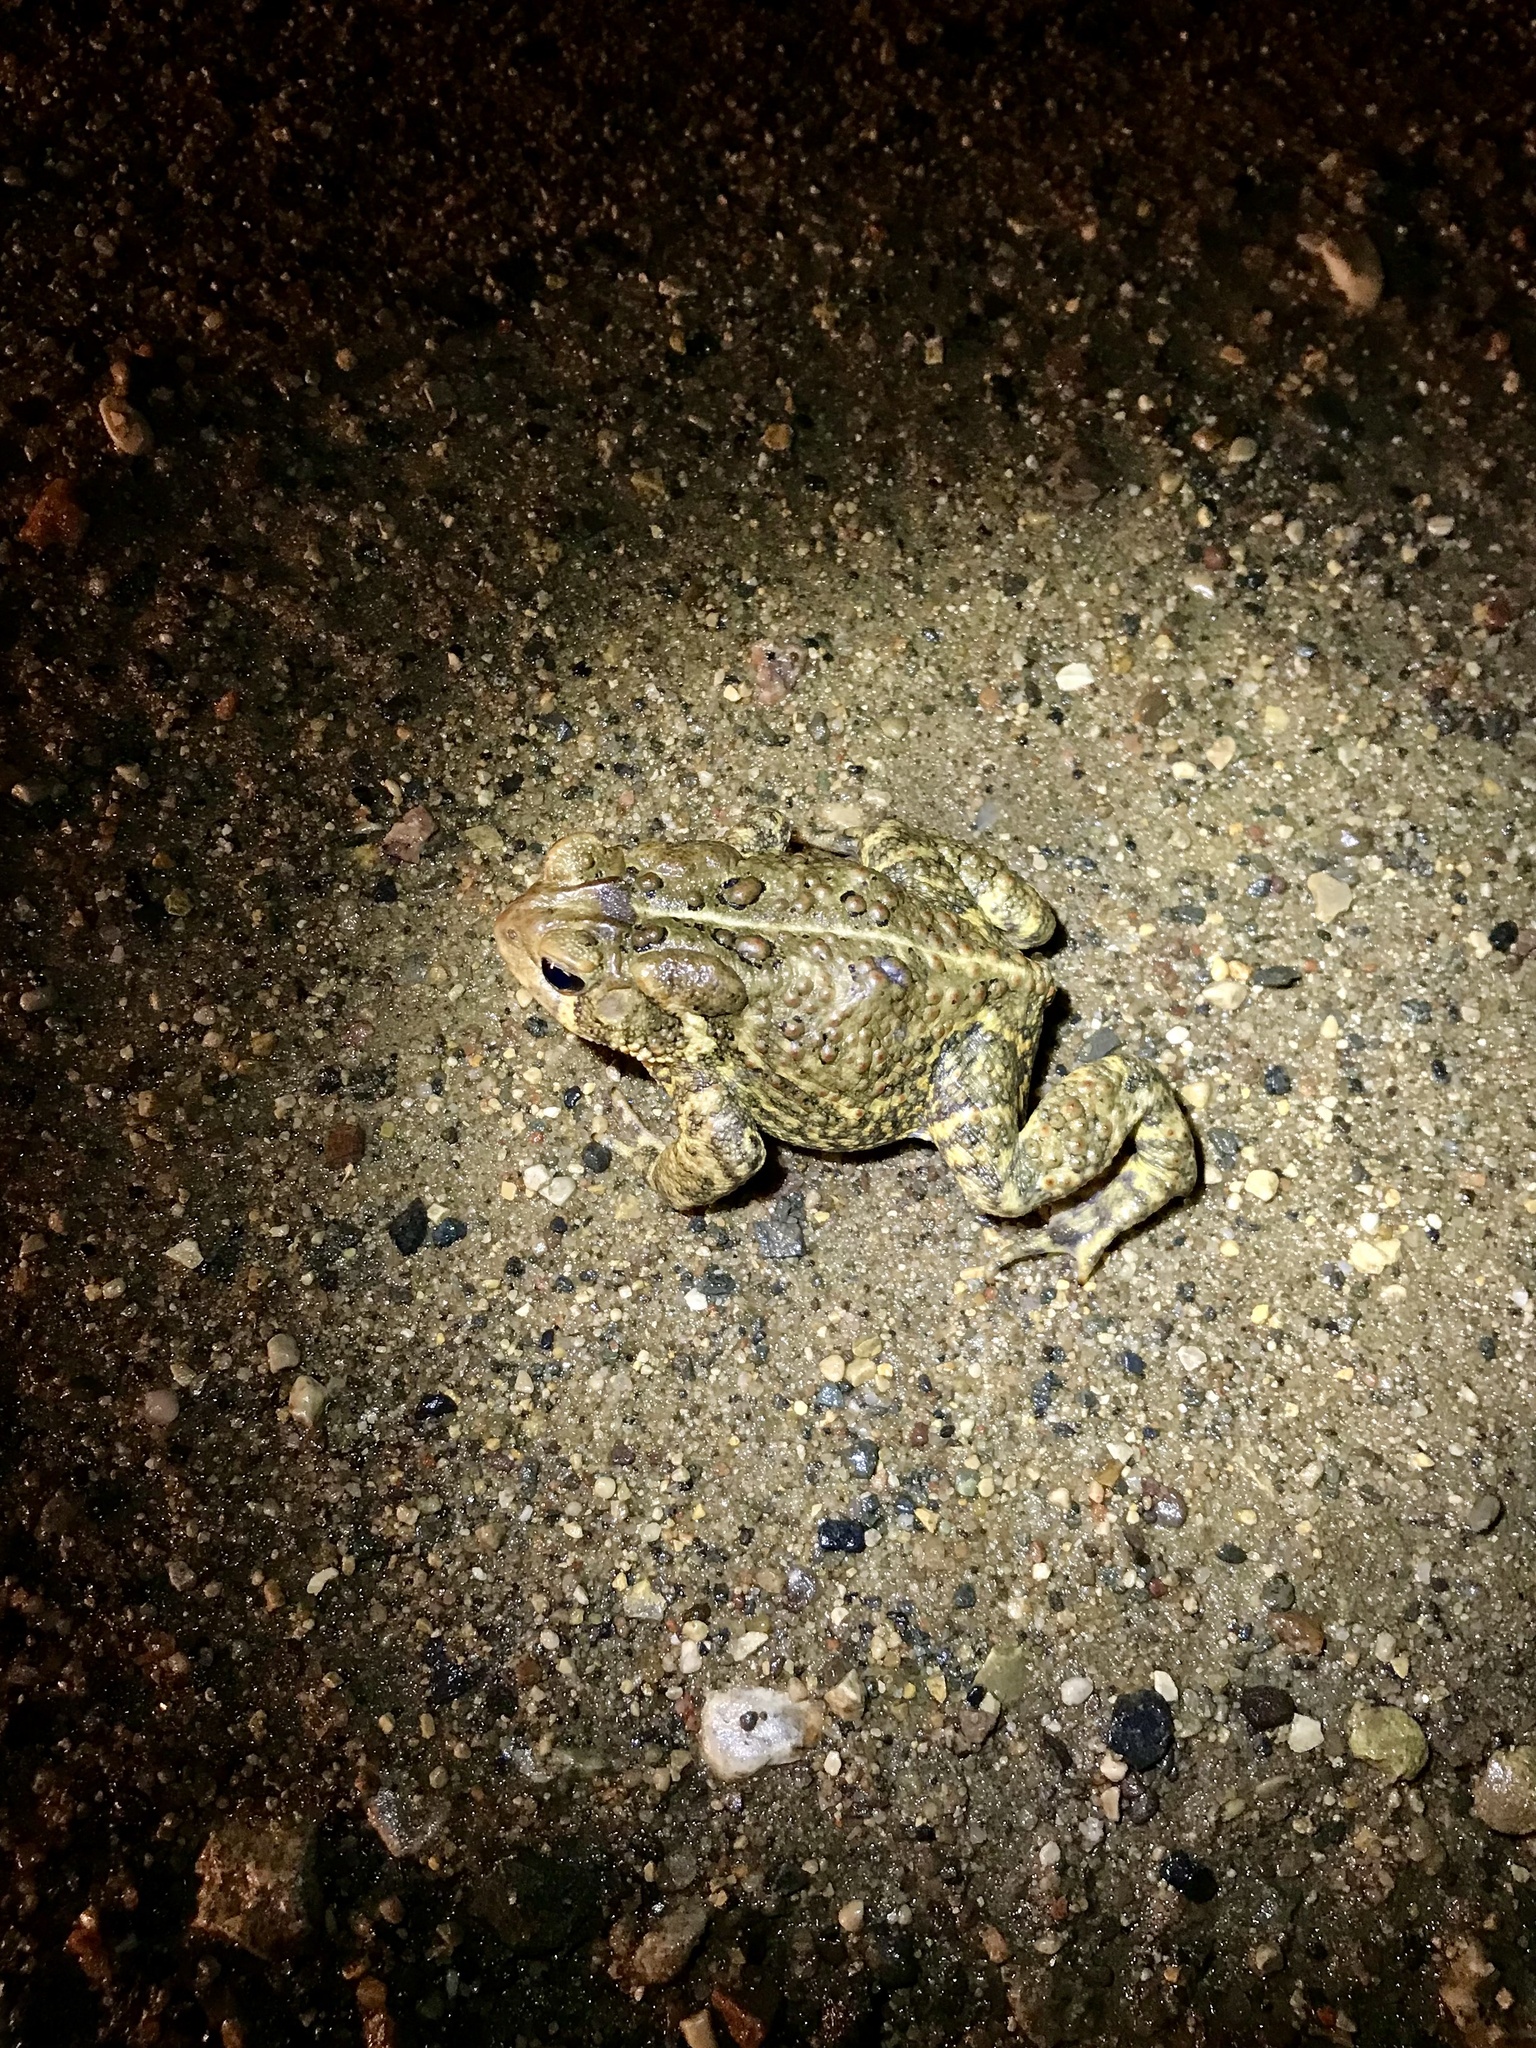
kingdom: Animalia
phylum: Chordata
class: Amphibia
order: Anura
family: Bufonidae
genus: Anaxyrus
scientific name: Anaxyrus americanus
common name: American toad
